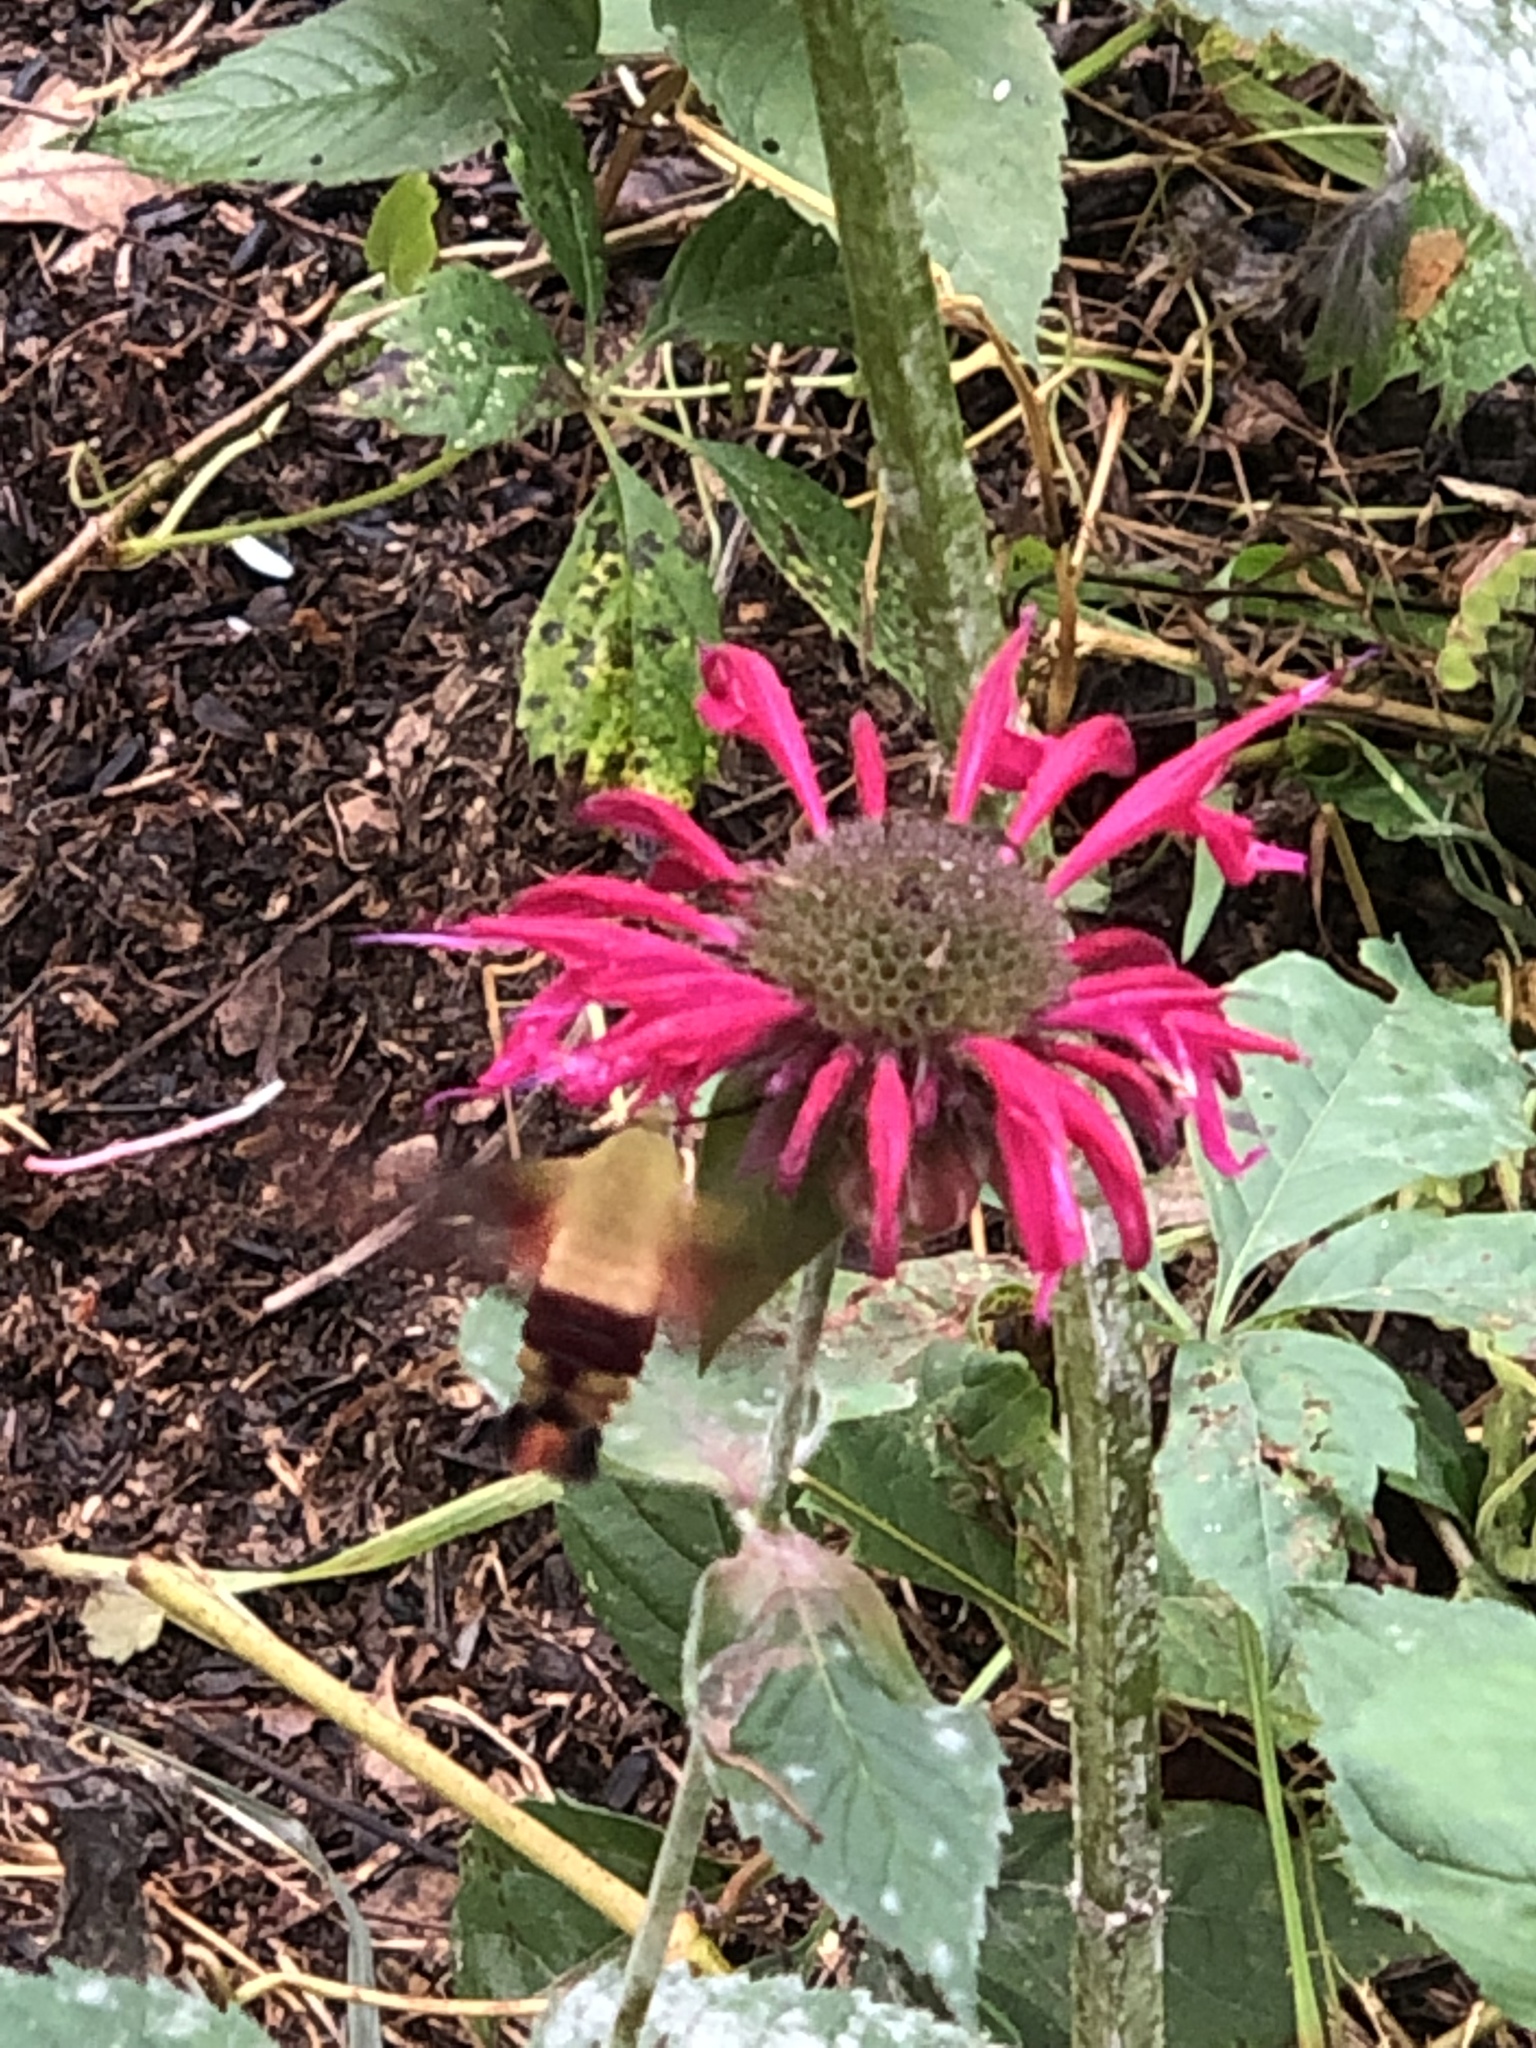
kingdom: Animalia
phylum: Arthropoda
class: Insecta
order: Lepidoptera
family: Sphingidae
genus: Hemaris
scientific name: Hemaris thysbe
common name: Common clear-wing
